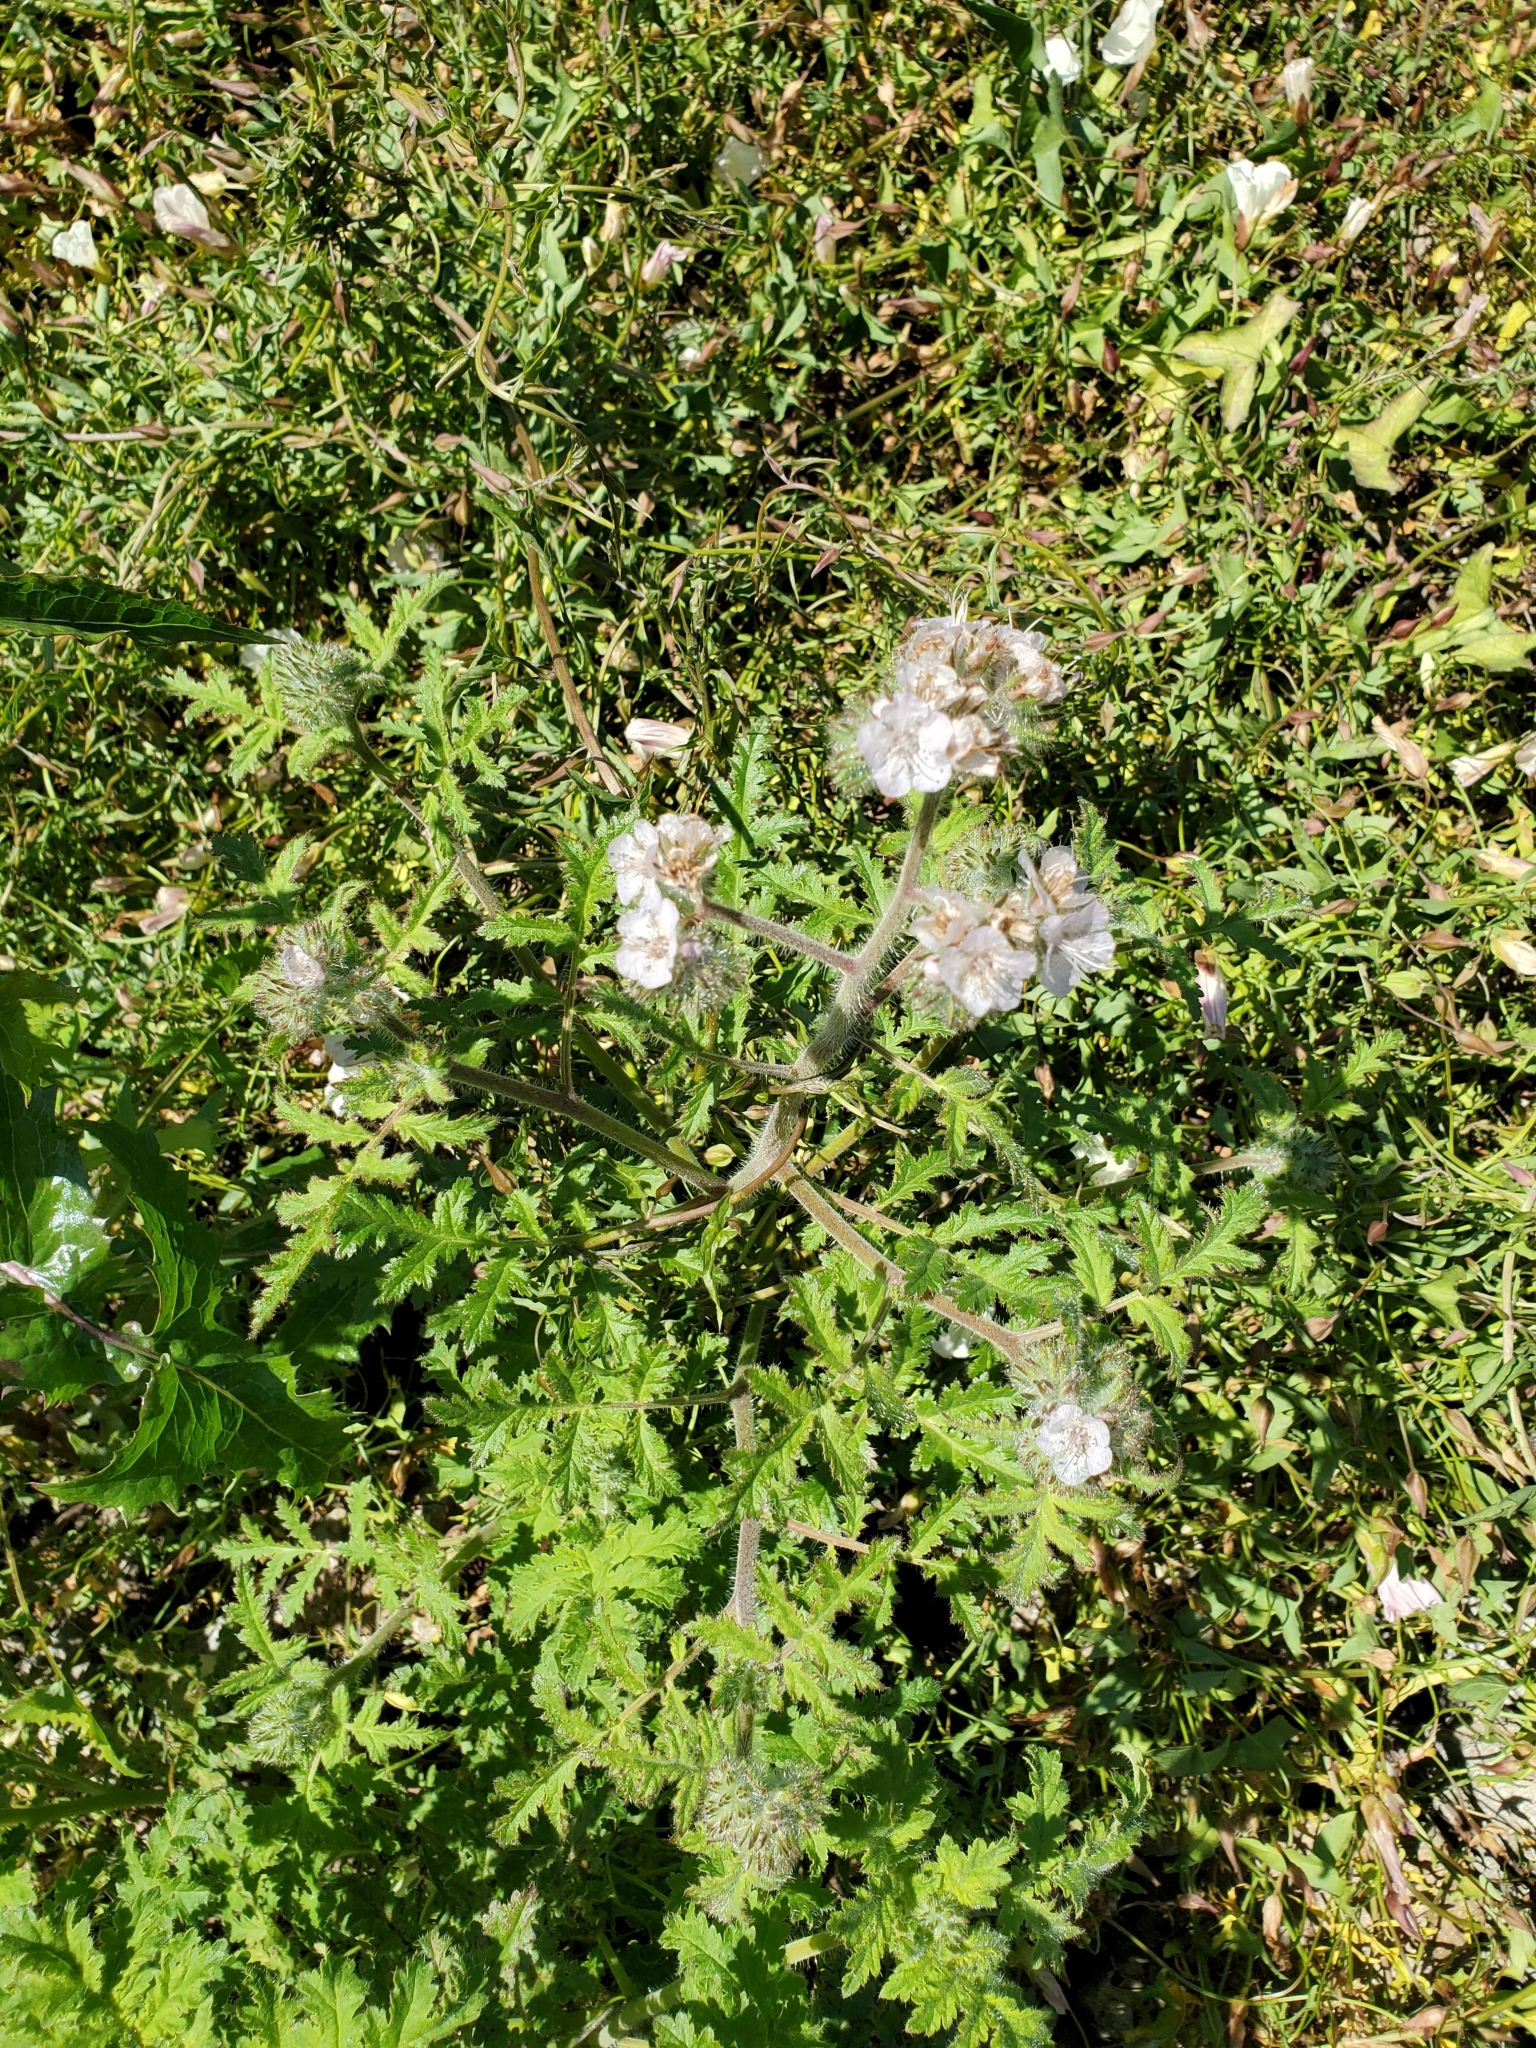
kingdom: Plantae
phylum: Tracheophyta
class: Magnoliopsida
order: Boraginales
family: Hydrophyllaceae
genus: Phacelia
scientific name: Phacelia cicutaria
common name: Caterpillar phacelia
